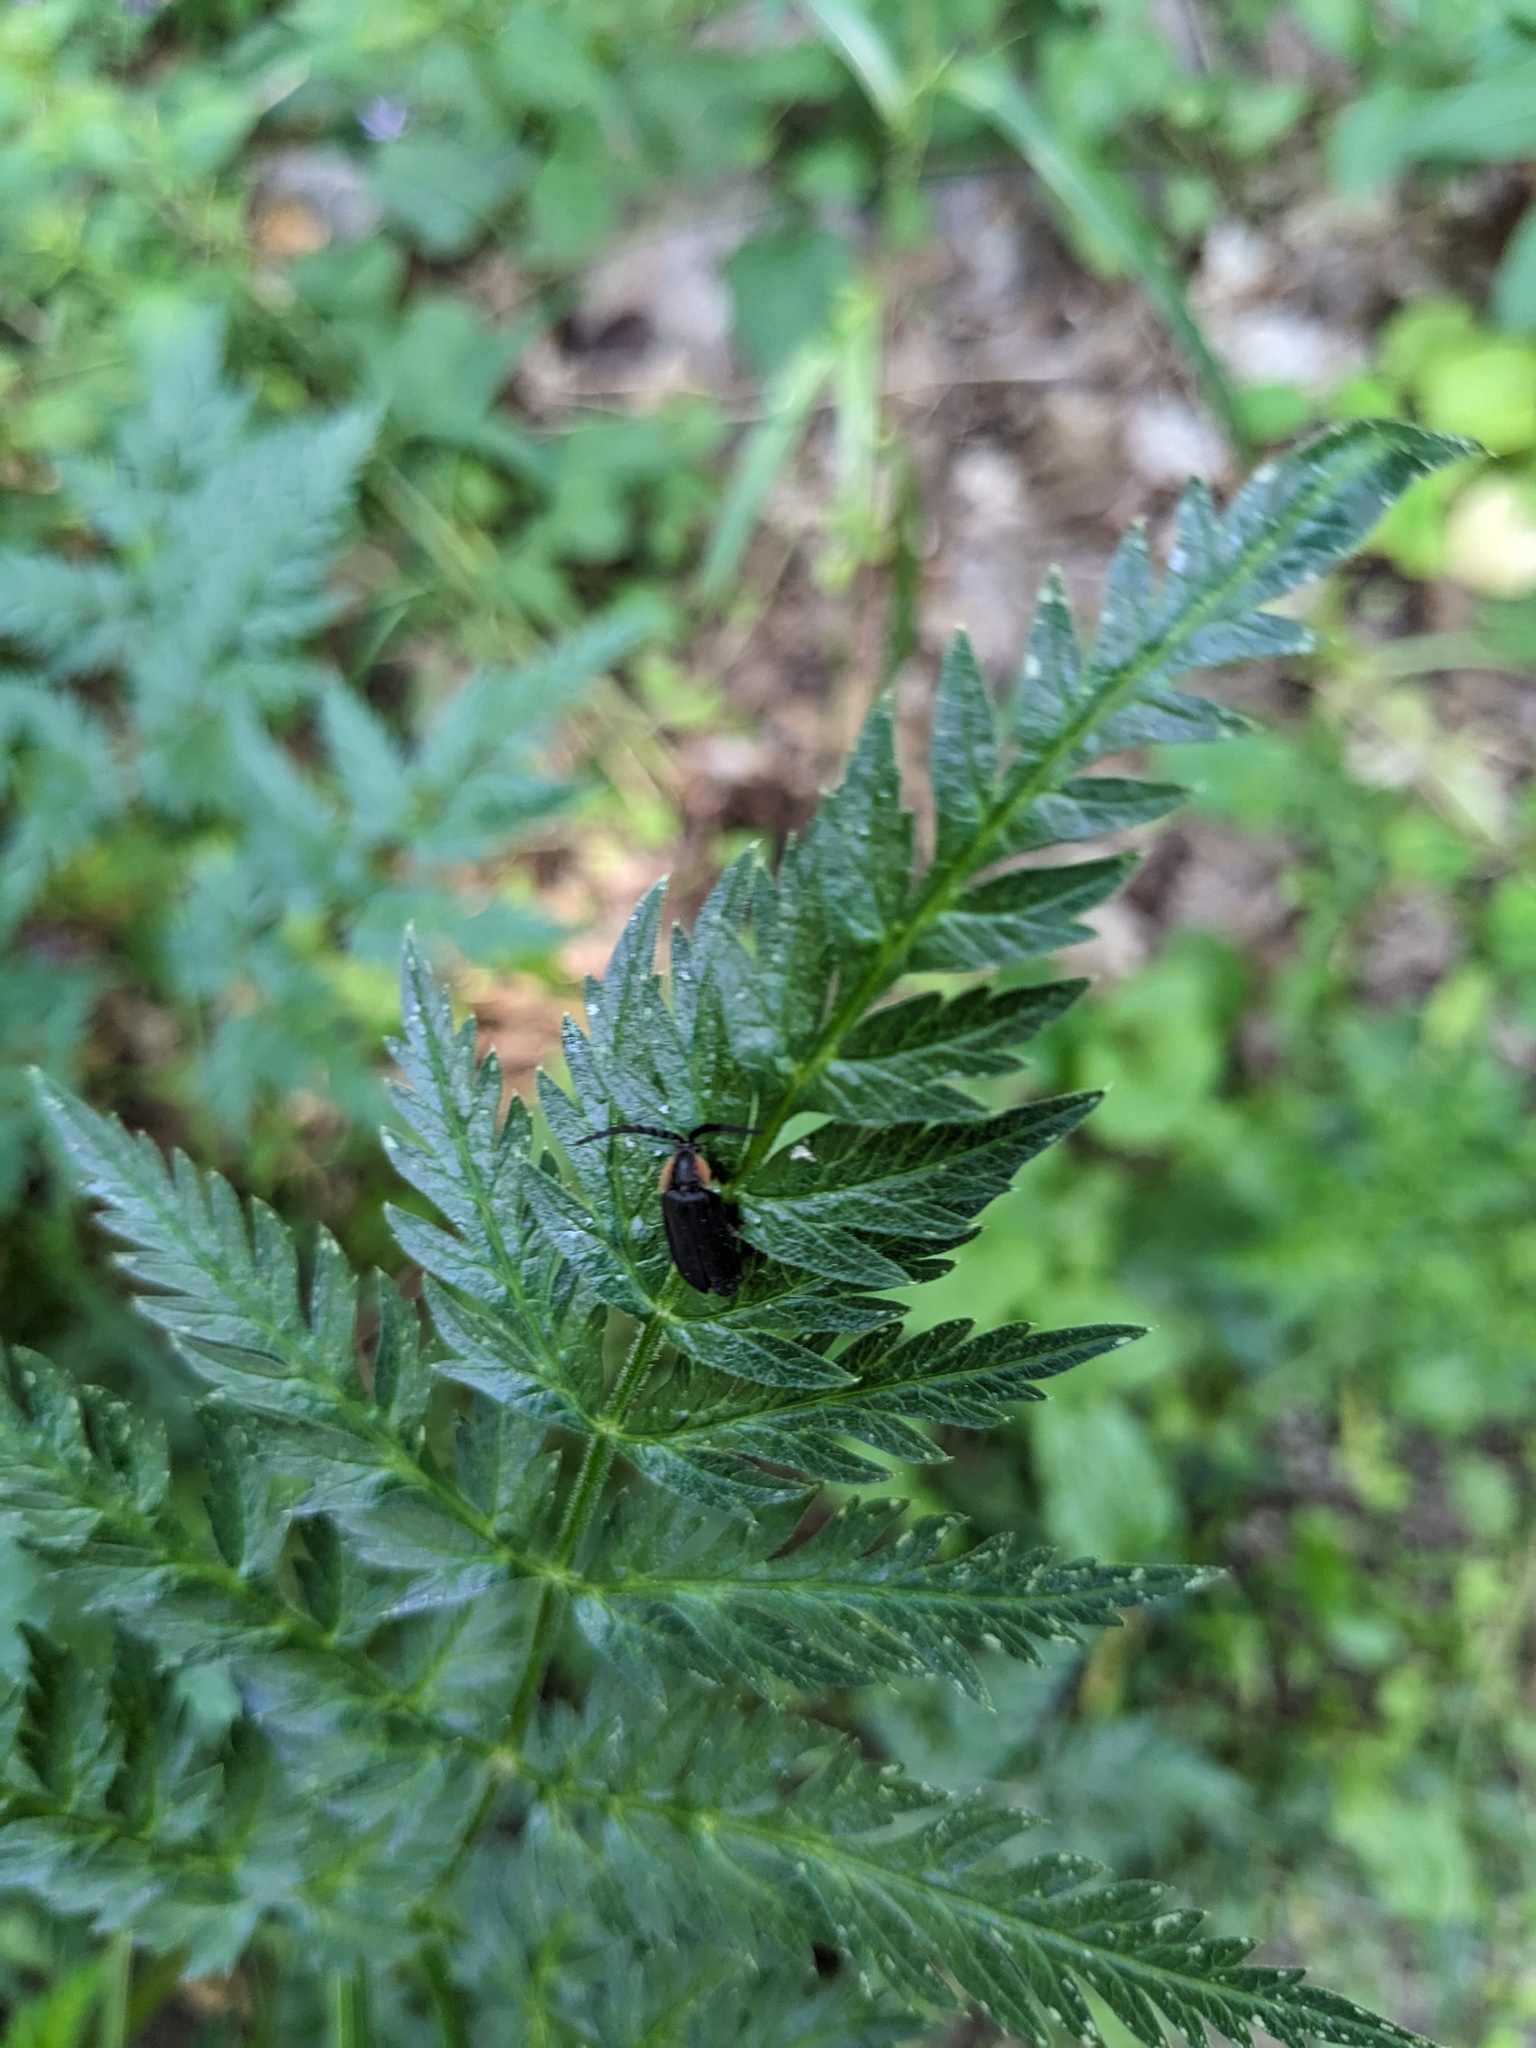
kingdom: Animalia
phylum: Arthropoda
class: Insecta
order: Coleoptera
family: Lampyridae
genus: Lucidota
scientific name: Lucidota atra
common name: Black firefly
